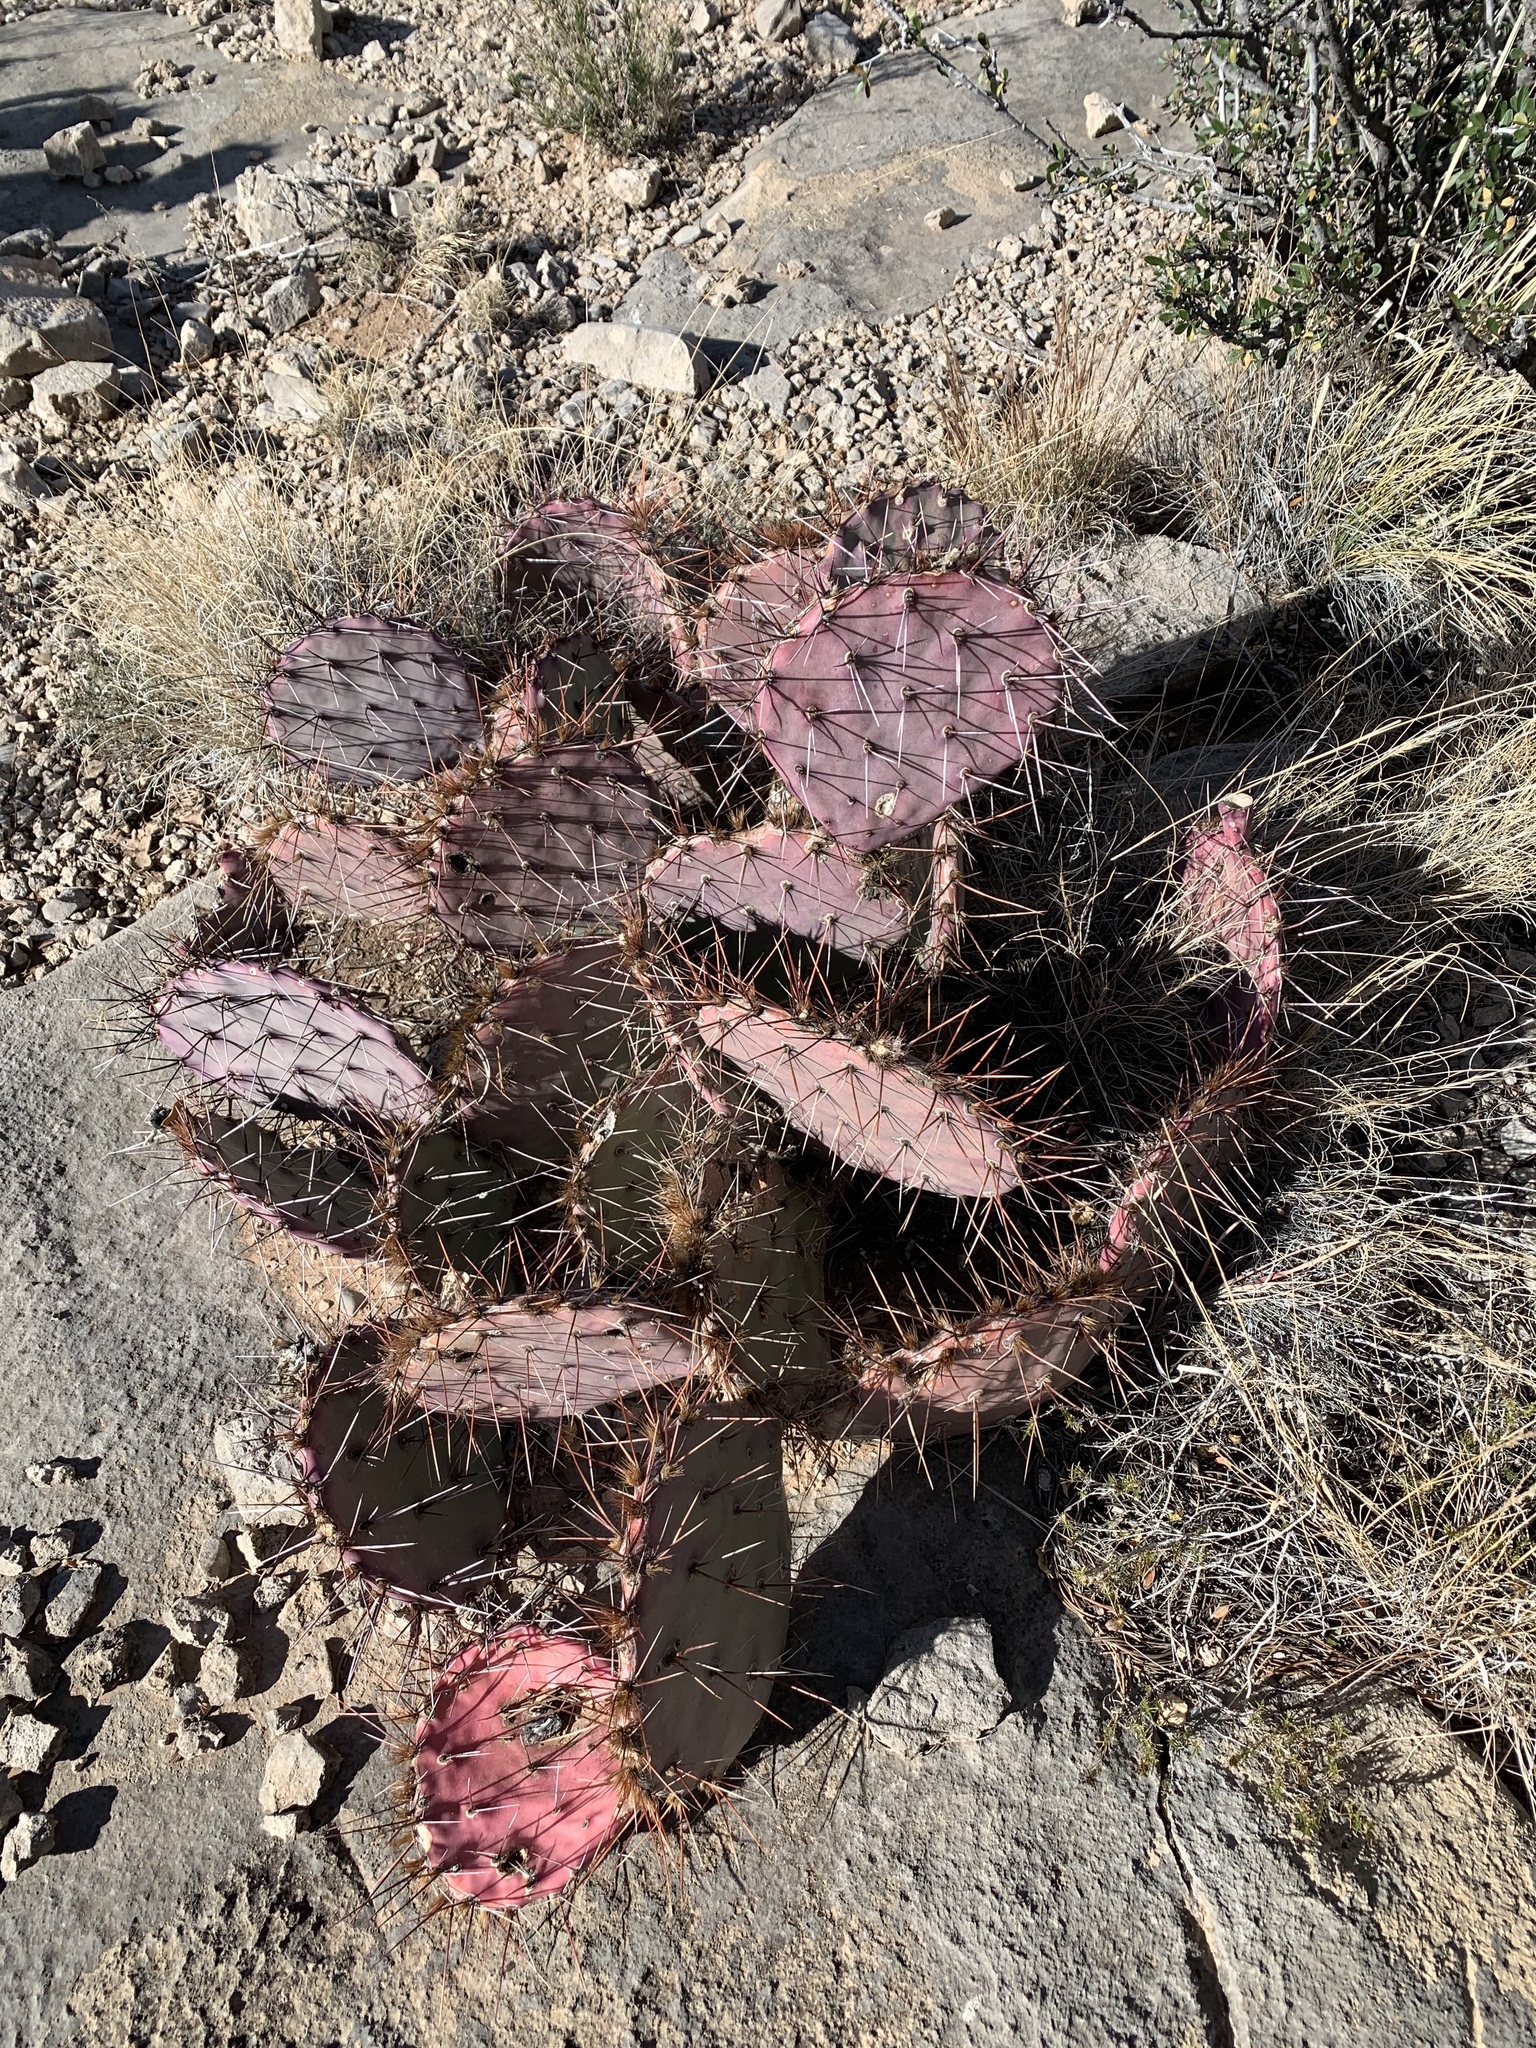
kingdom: Plantae
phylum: Tracheophyta
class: Magnoliopsida
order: Caryophyllales
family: Cactaceae
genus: Opuntia
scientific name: Opuntia macrocentra
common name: Purple prickly-pear
